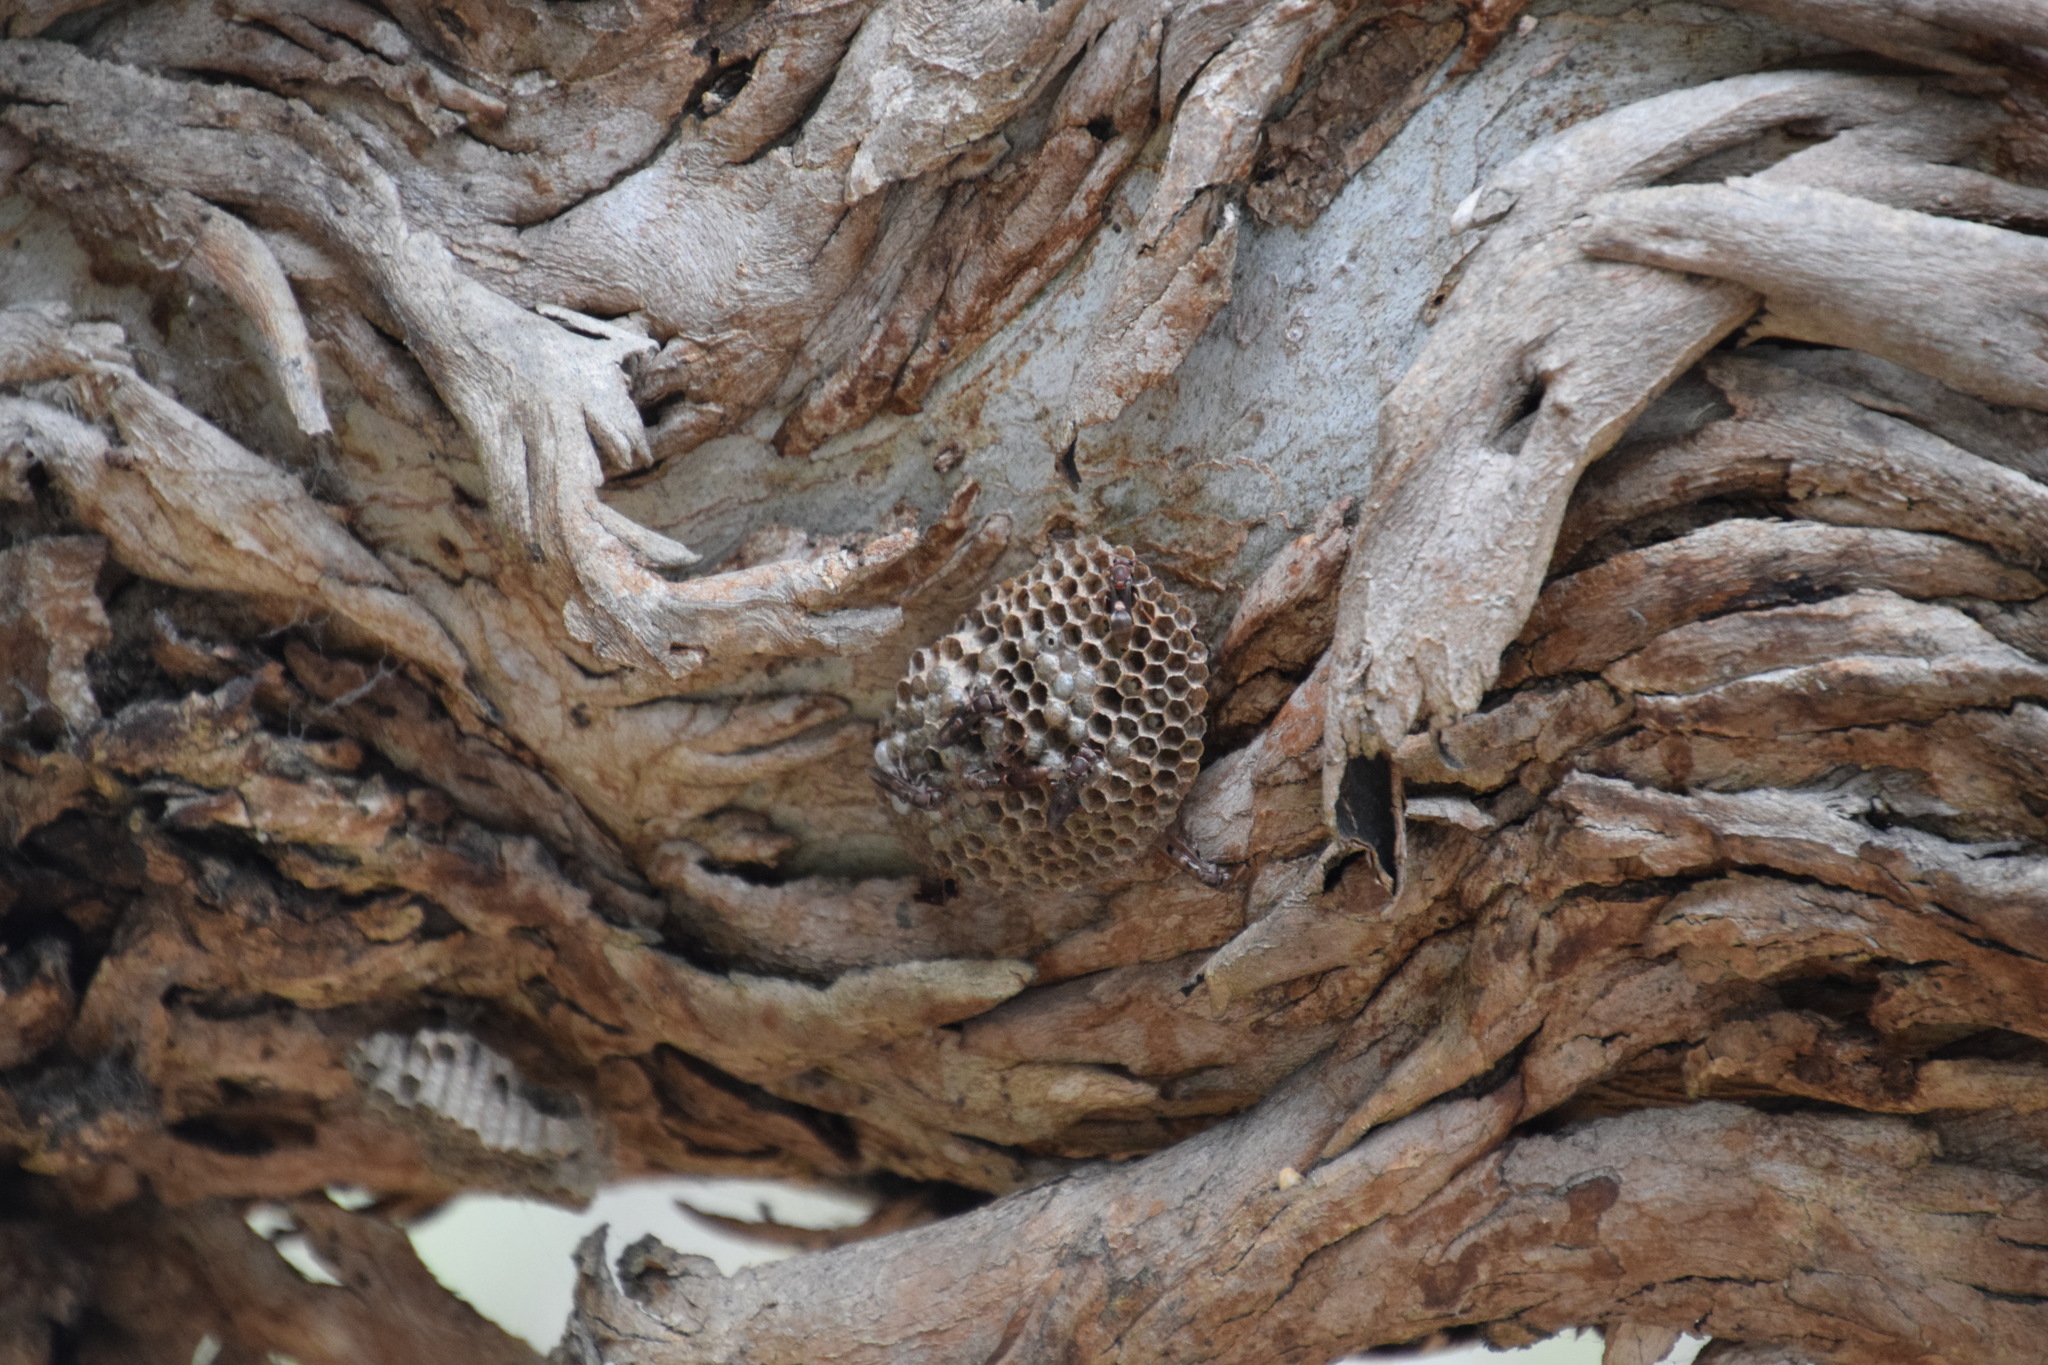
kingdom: Animalia
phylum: Arthropoda
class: Insecta
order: Hymenoptera
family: Eumenidae
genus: Polistes
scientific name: Polistes humilis
